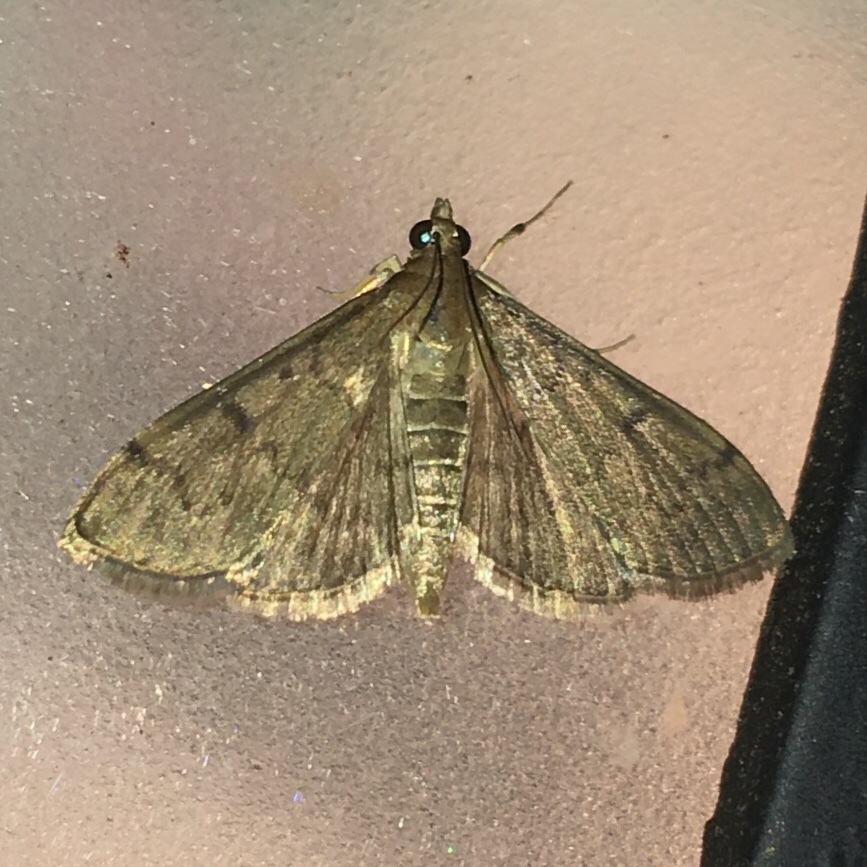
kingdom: Animalia
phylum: Arthropoda
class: Insecta
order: Lepidoptera
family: Crambidae
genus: Herpetogramma
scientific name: Herpetogramma phaeopteralis
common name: Dusky herpetogramma moth
